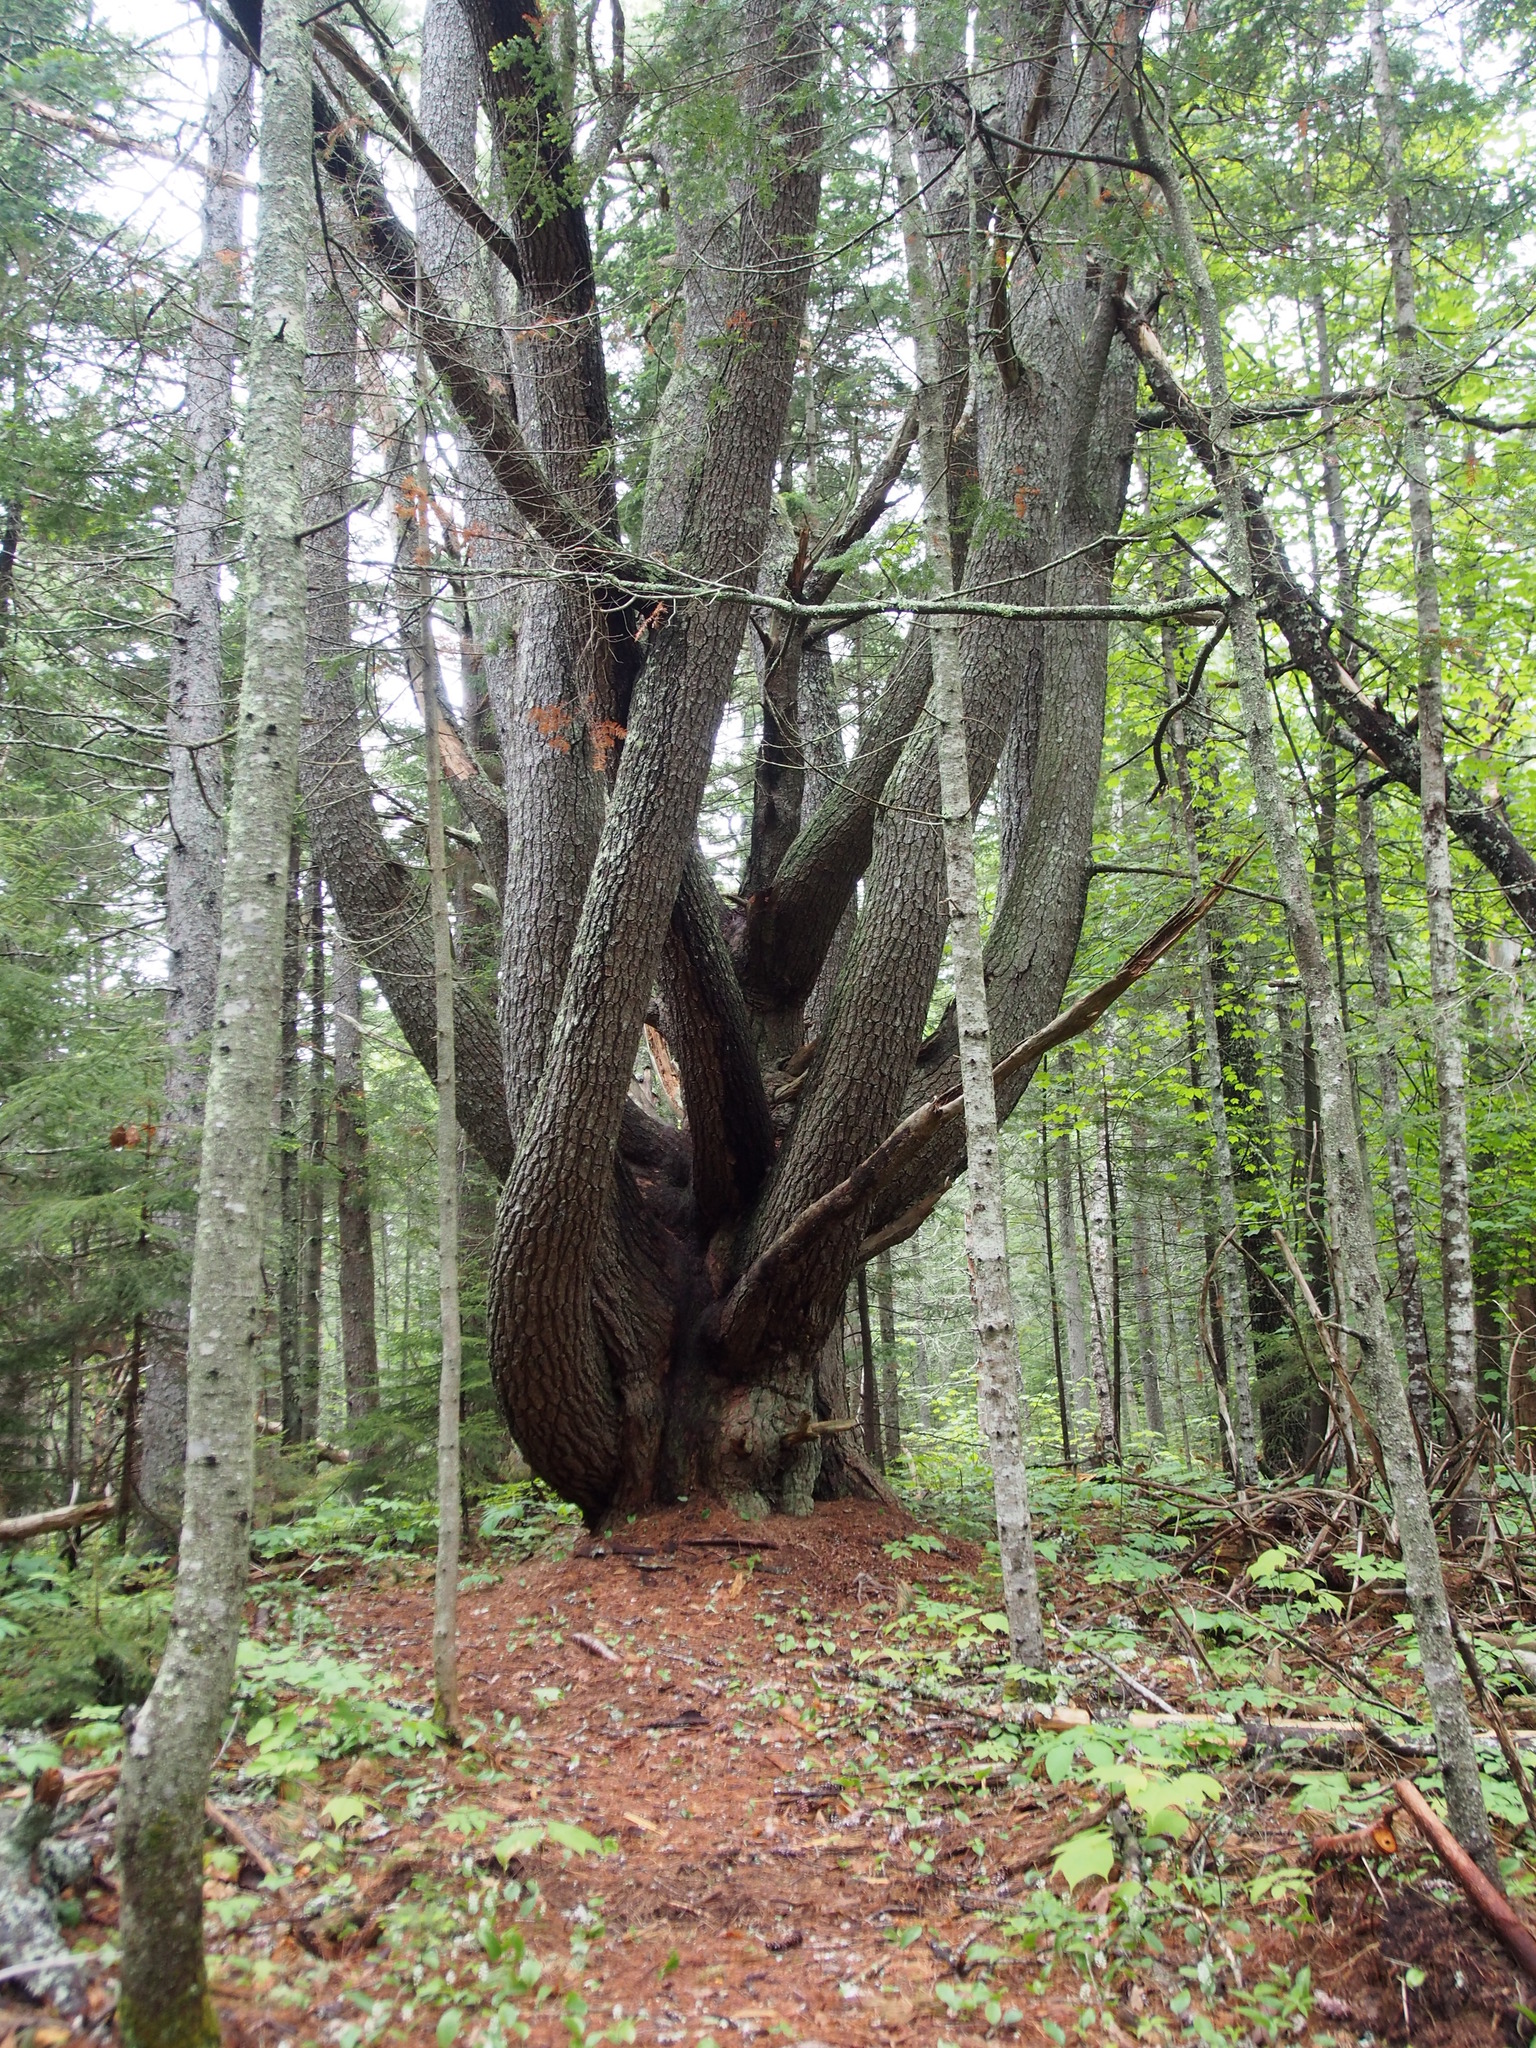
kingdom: Plantae
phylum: Tracheophyta
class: Pinopsida
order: Pinales
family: Pinaceae
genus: Pinus
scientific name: Pinus strobus
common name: Weymouth pine
